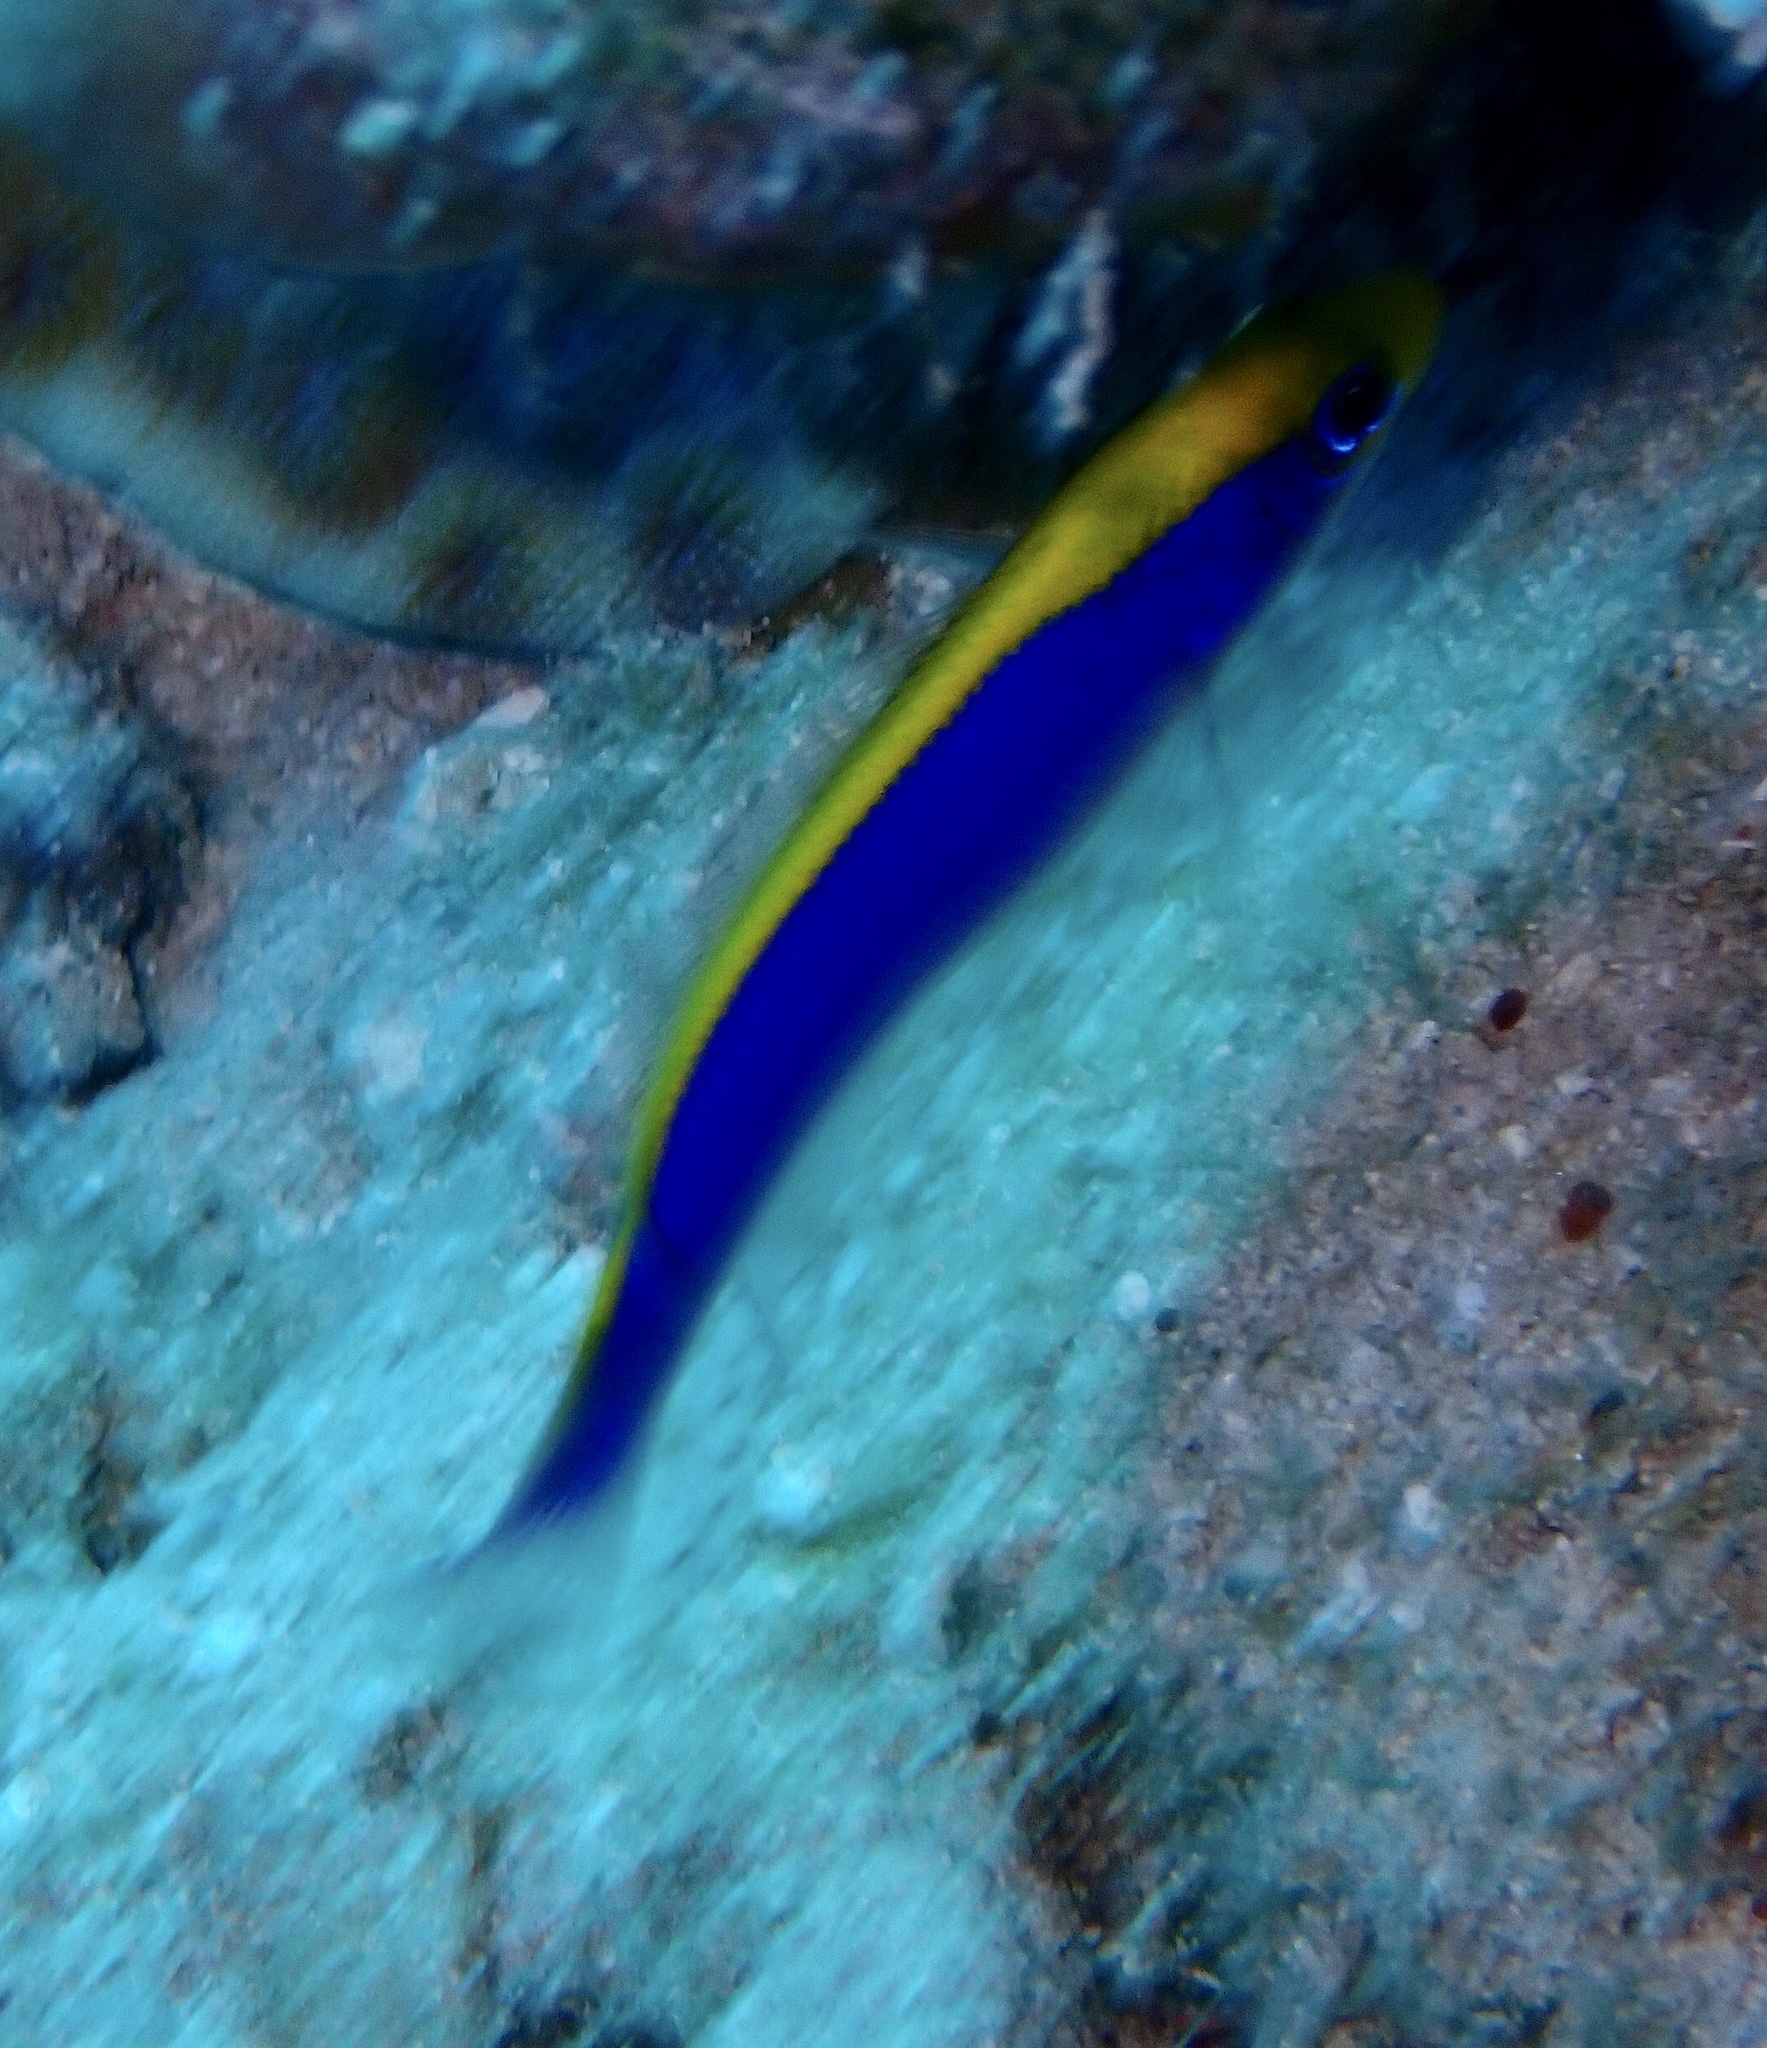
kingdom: Animalia
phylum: Chordata
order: Perciformes
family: Pseudochromidae
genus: Pseudochromis
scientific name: Pseudochromis flavivertex
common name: Sunrise dottyback
